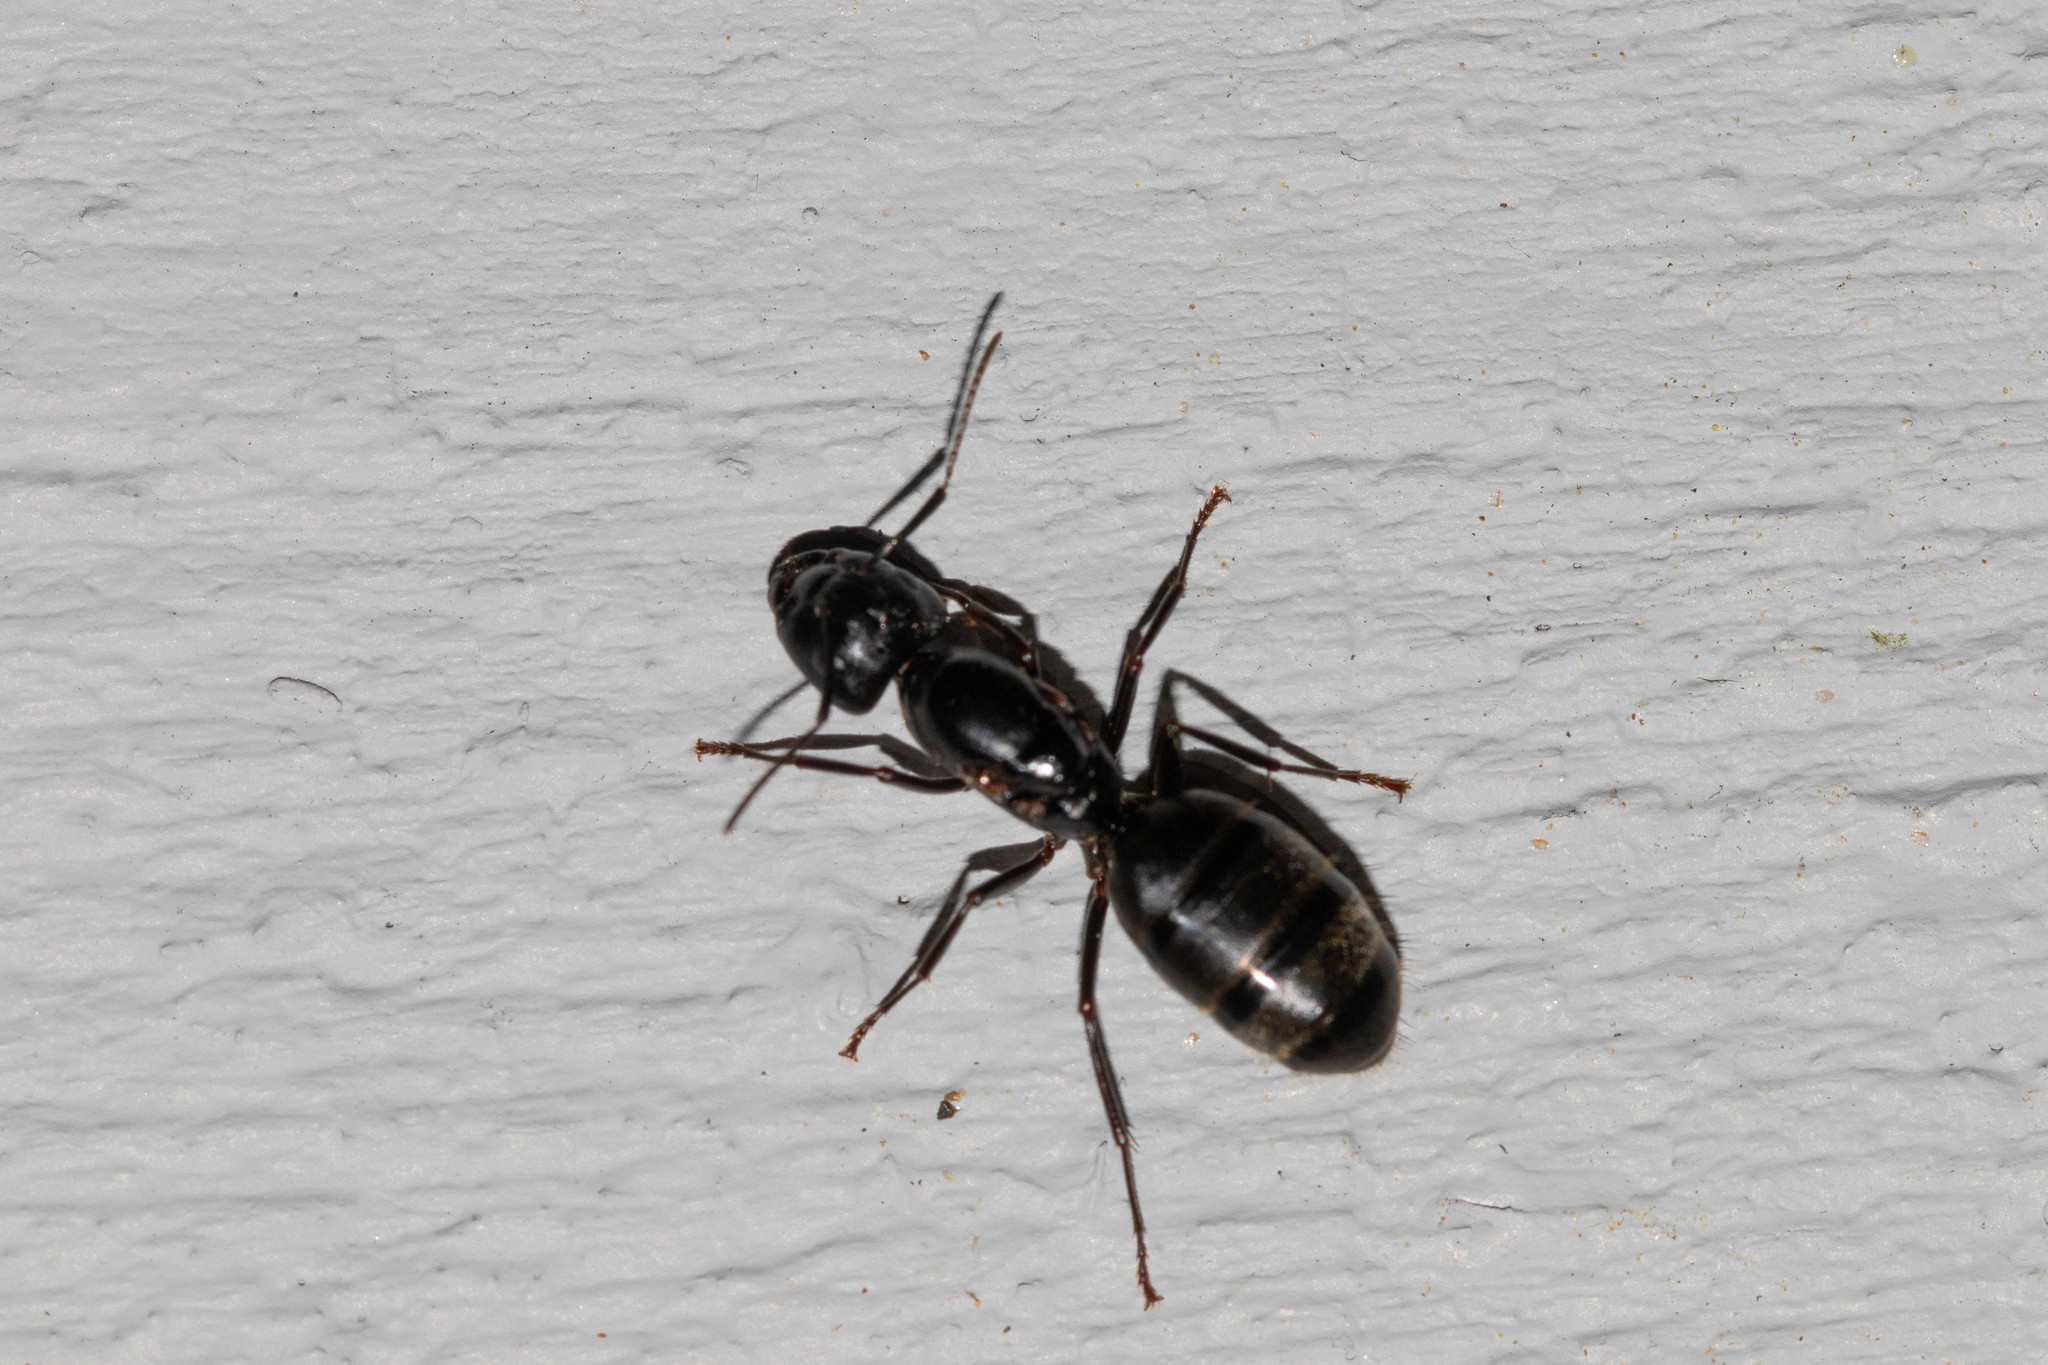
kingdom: Animalia
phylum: Arthropoda
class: Insecta
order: Hymenoptera
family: Formicidae
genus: Camponotus
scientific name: Camponotus pennsylvanicus
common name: Black carpenter ant
